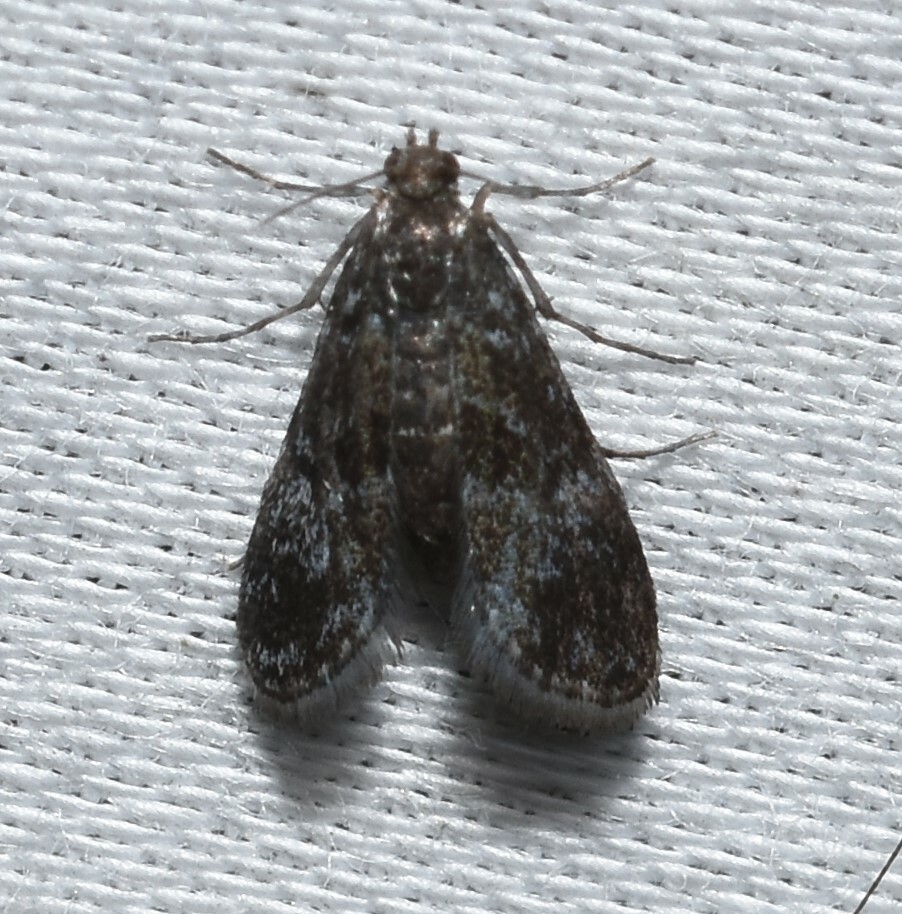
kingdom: Animalia
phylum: Arthropoda
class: Insecta
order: Lepidoptera
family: Crambidae
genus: Elophila
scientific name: Elophila tinealis
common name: Black duckweed moth
